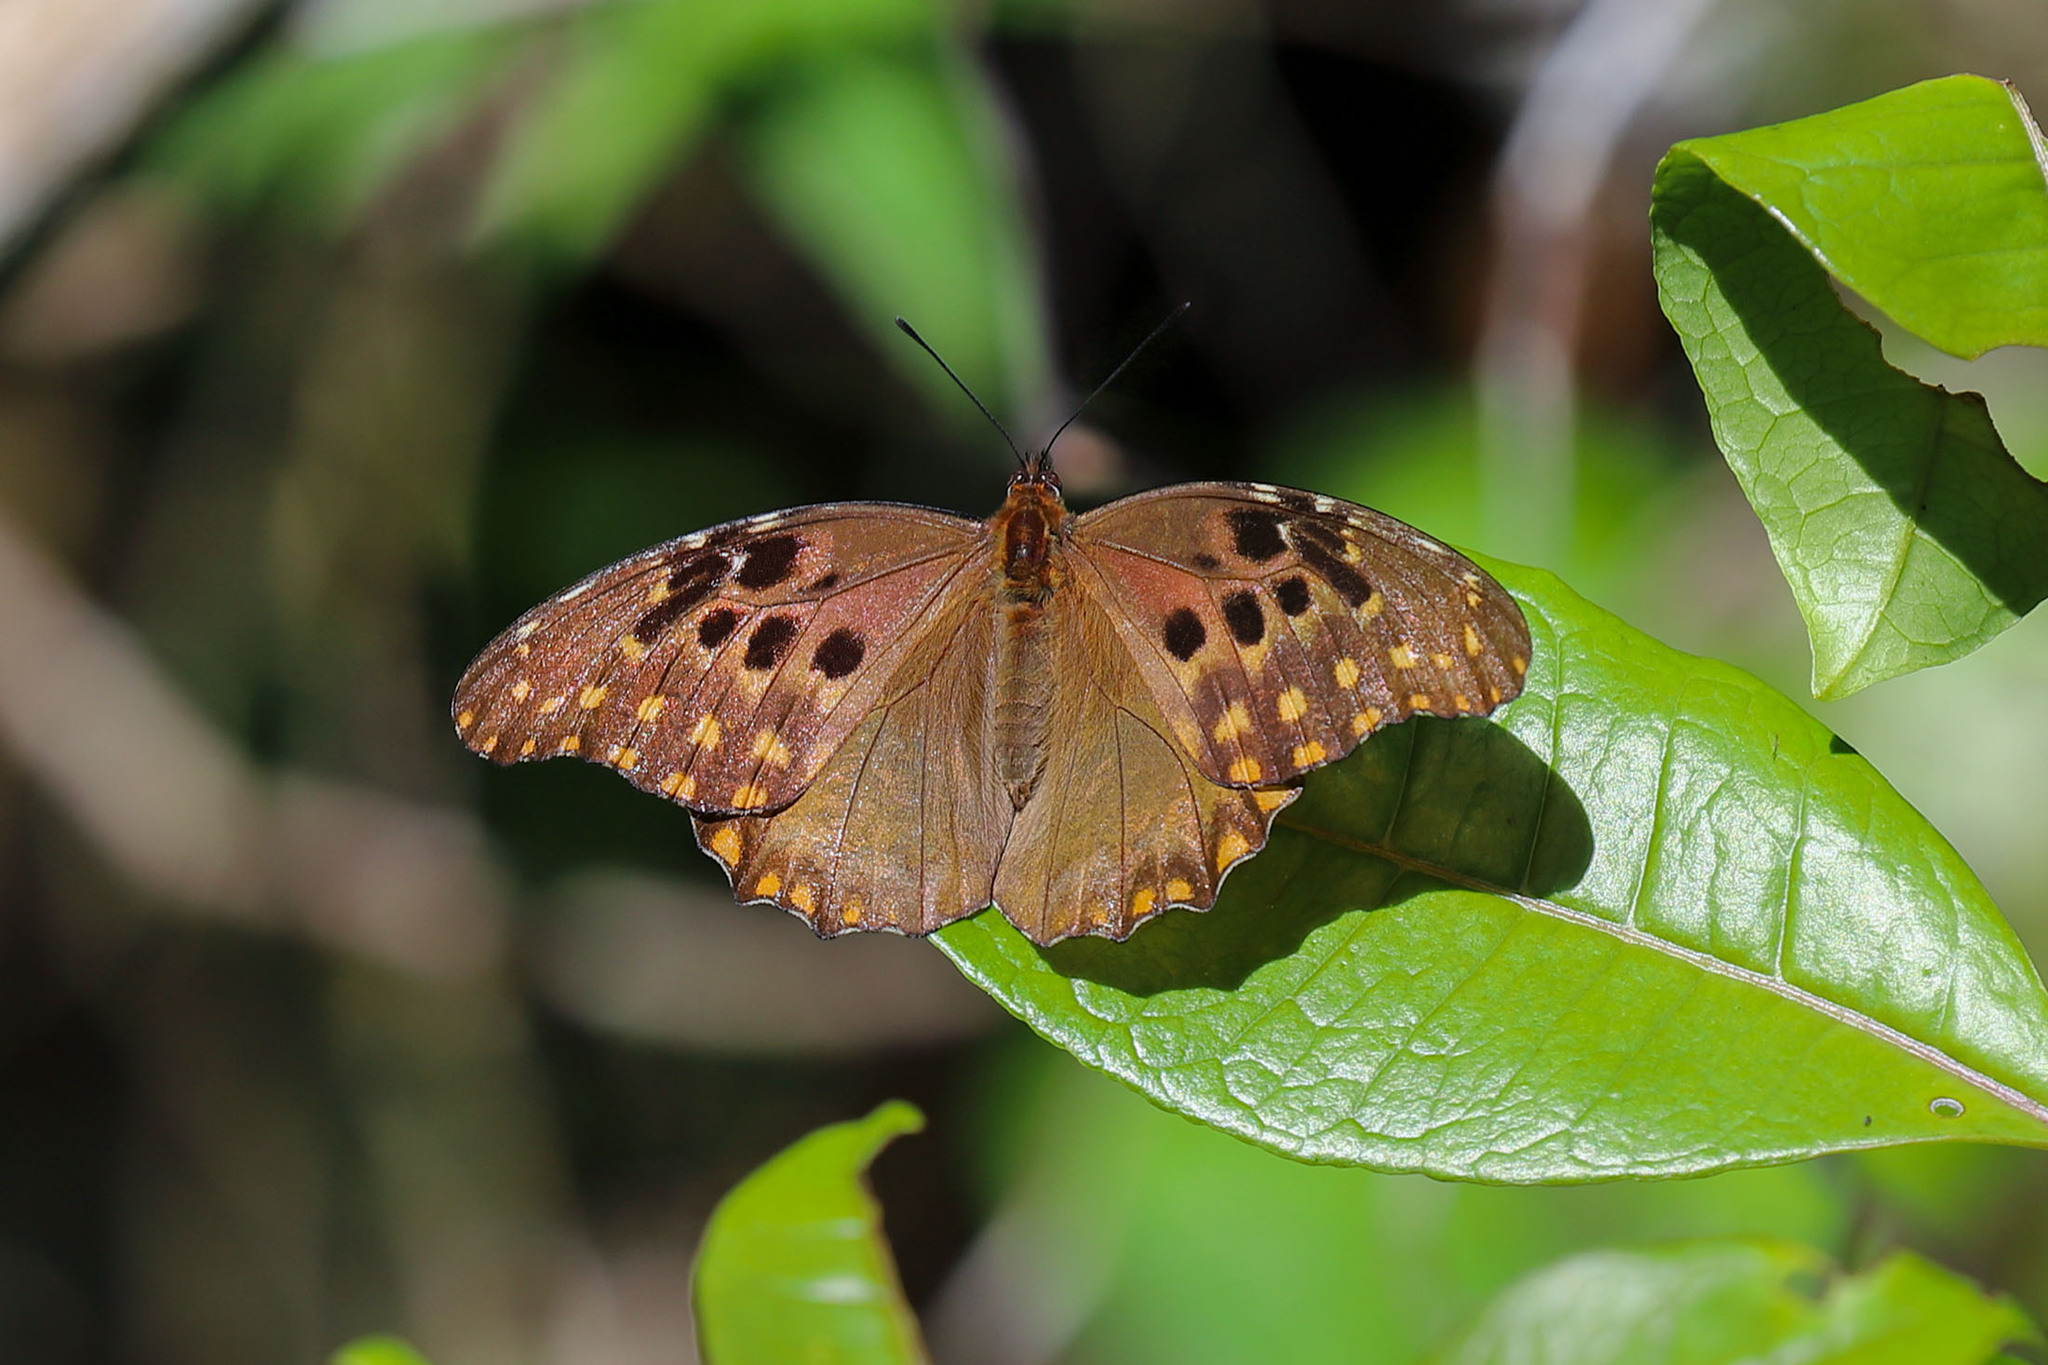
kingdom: Animalia
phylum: Arthropoda
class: Insecta
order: Lepidoptera
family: Nymphalidae
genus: Anetia
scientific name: Anetia jaegeri
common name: Jaeger's anetia
